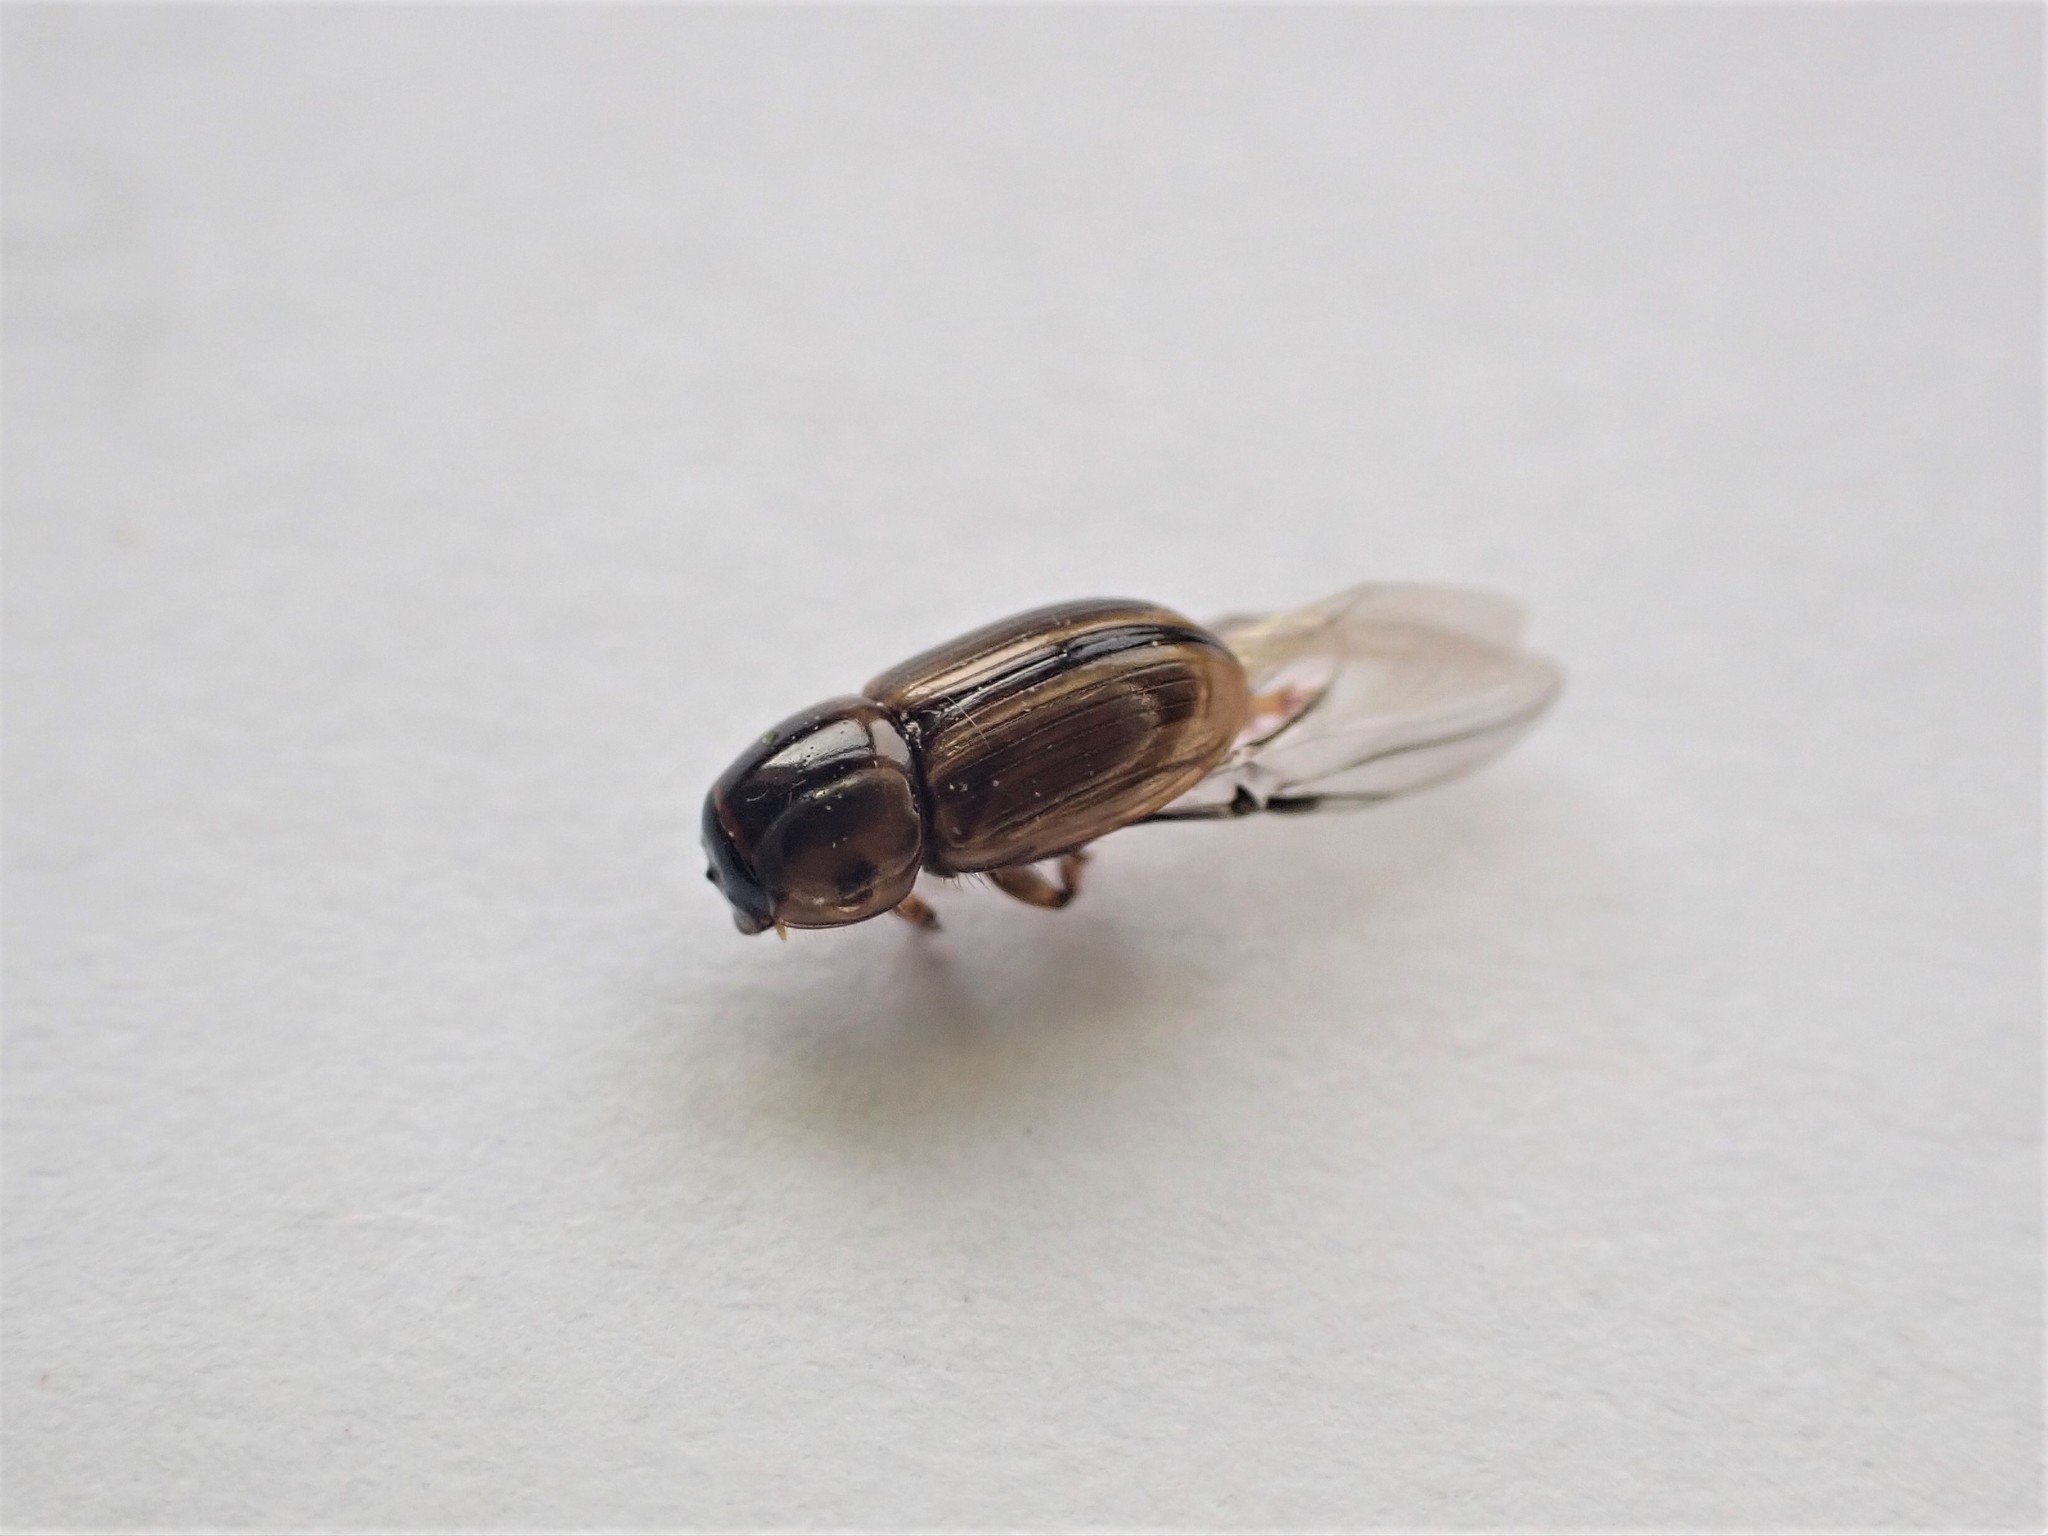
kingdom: Animalia
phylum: Arthropoda
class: Insecta
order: Coleoptera
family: Scarabaeidae
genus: Labarrus
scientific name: Labarrus lividus
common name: Scarab beetle
